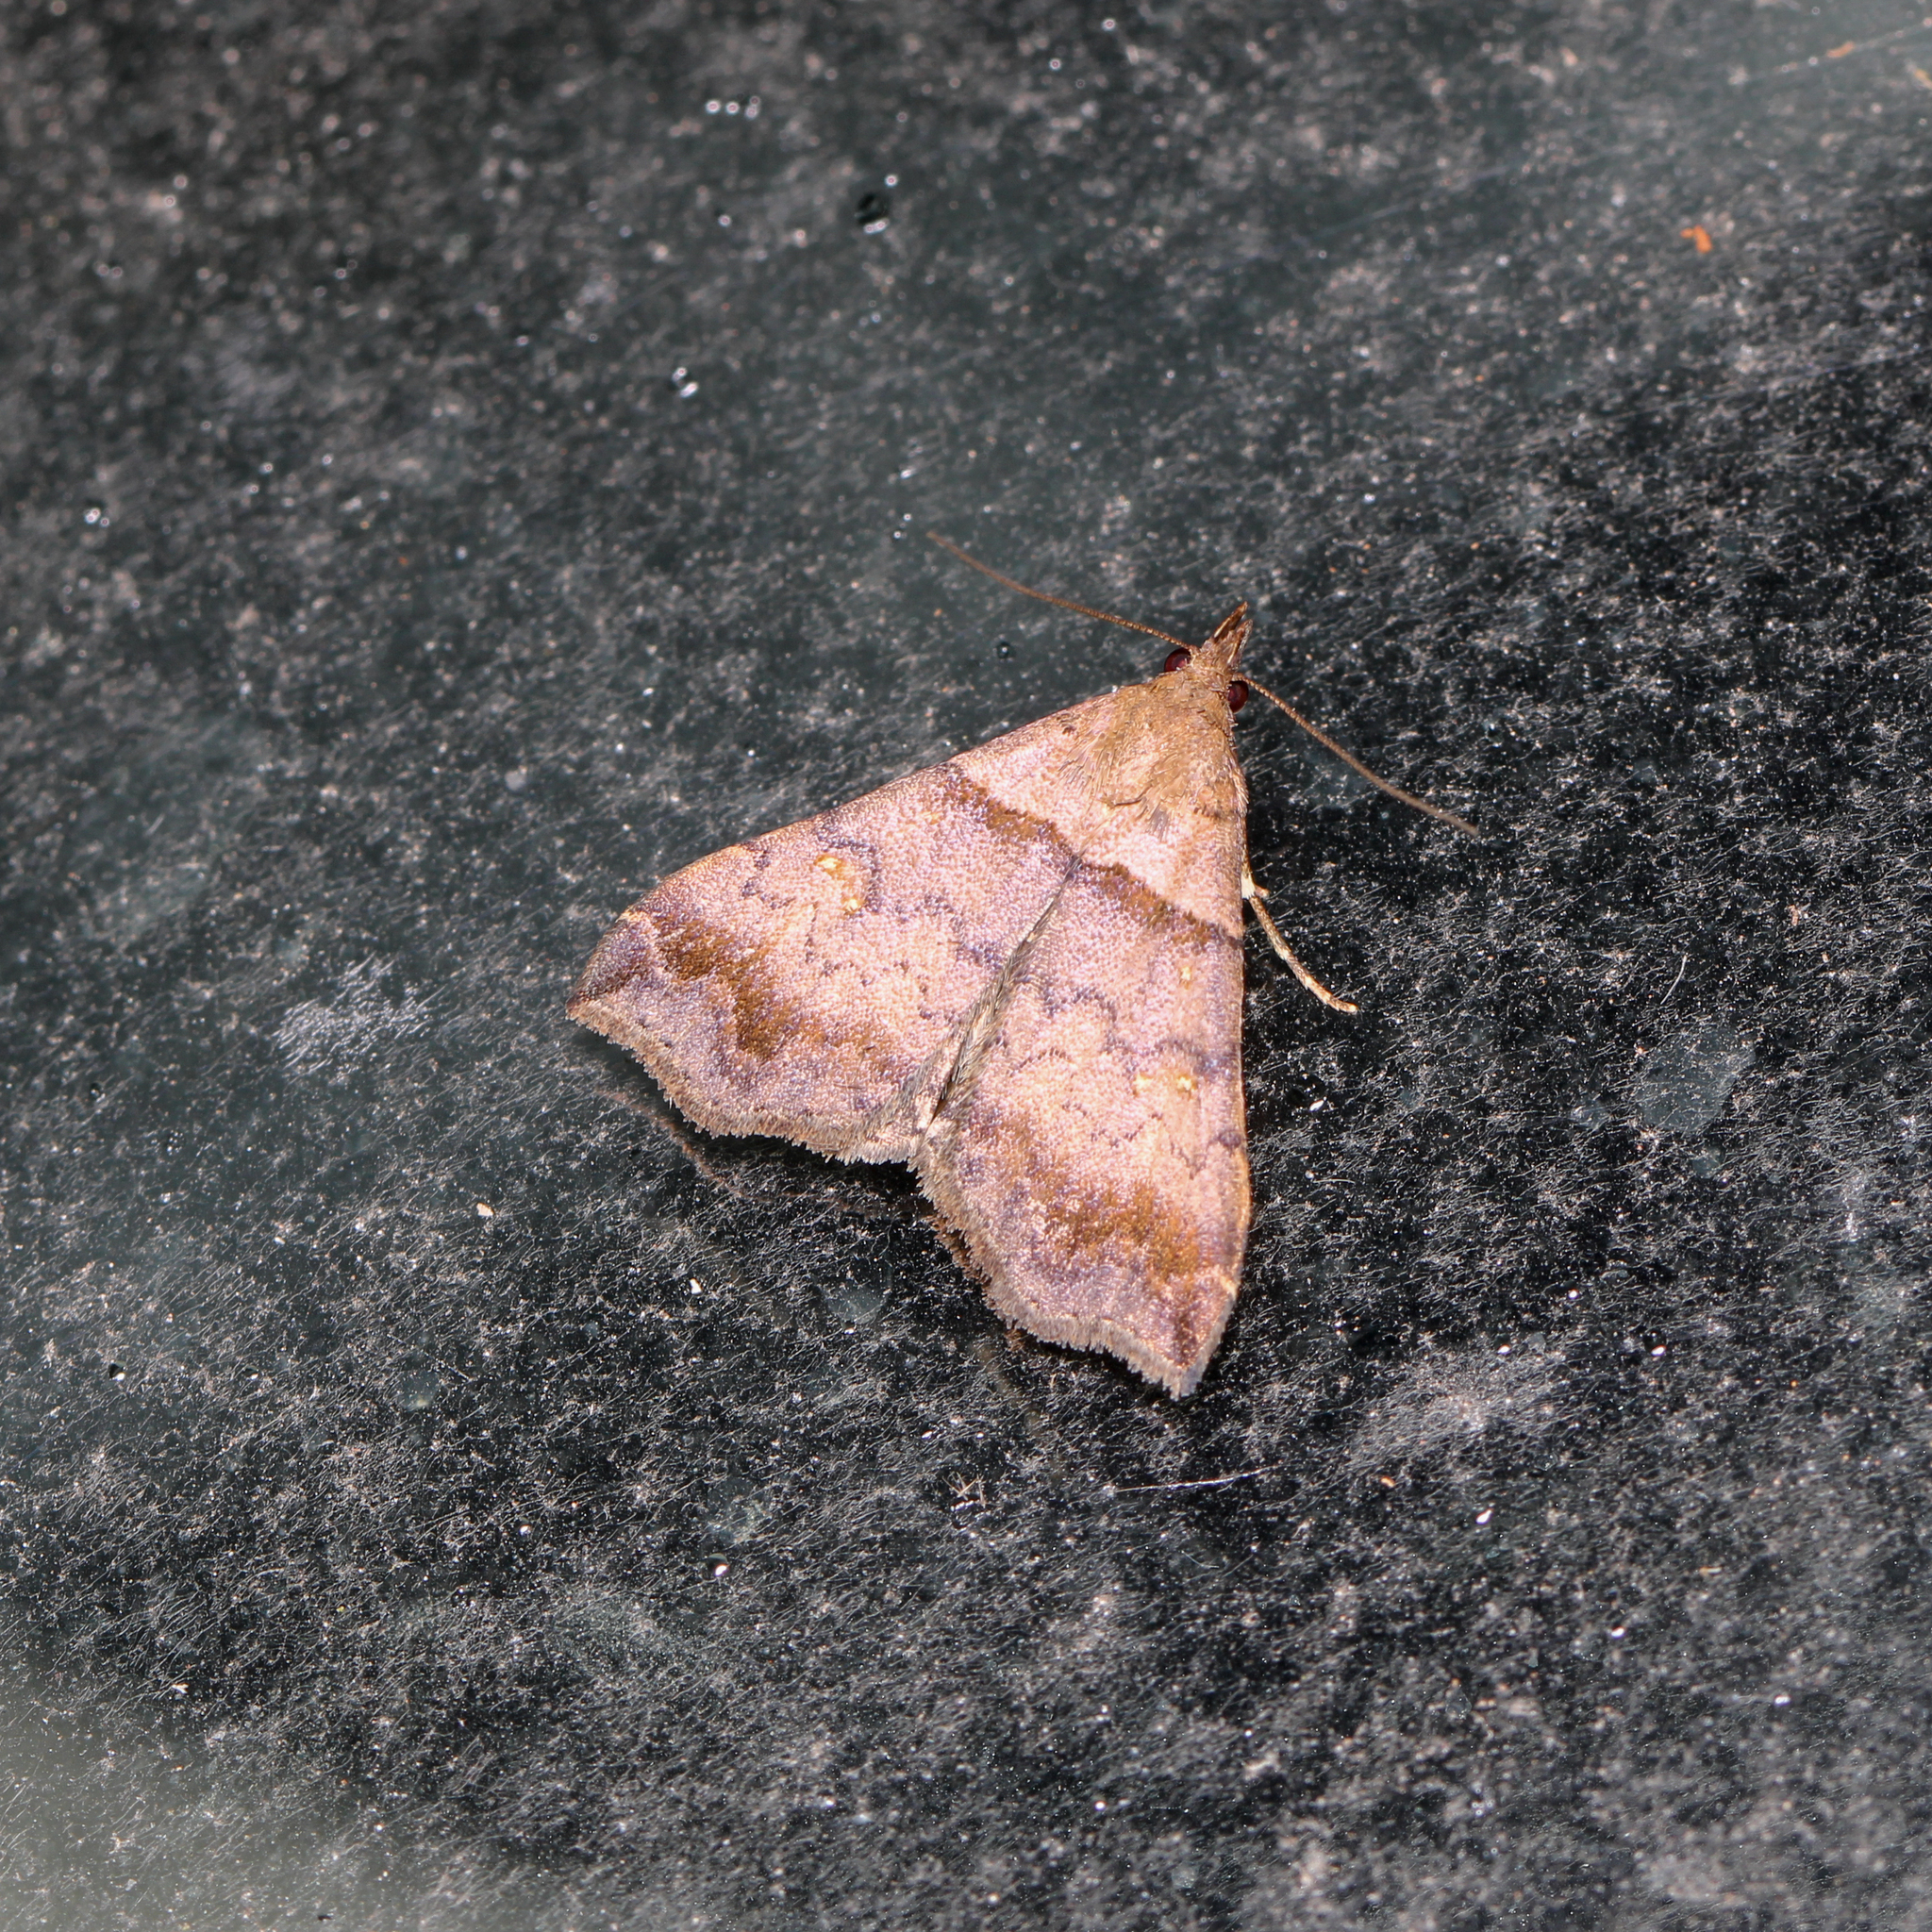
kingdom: Animalia
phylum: Arthropoda
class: Insecta
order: Lepidoptera
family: Erebidae
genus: Lascoria
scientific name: Lascoria ambigualis
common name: Ambiguous moth
